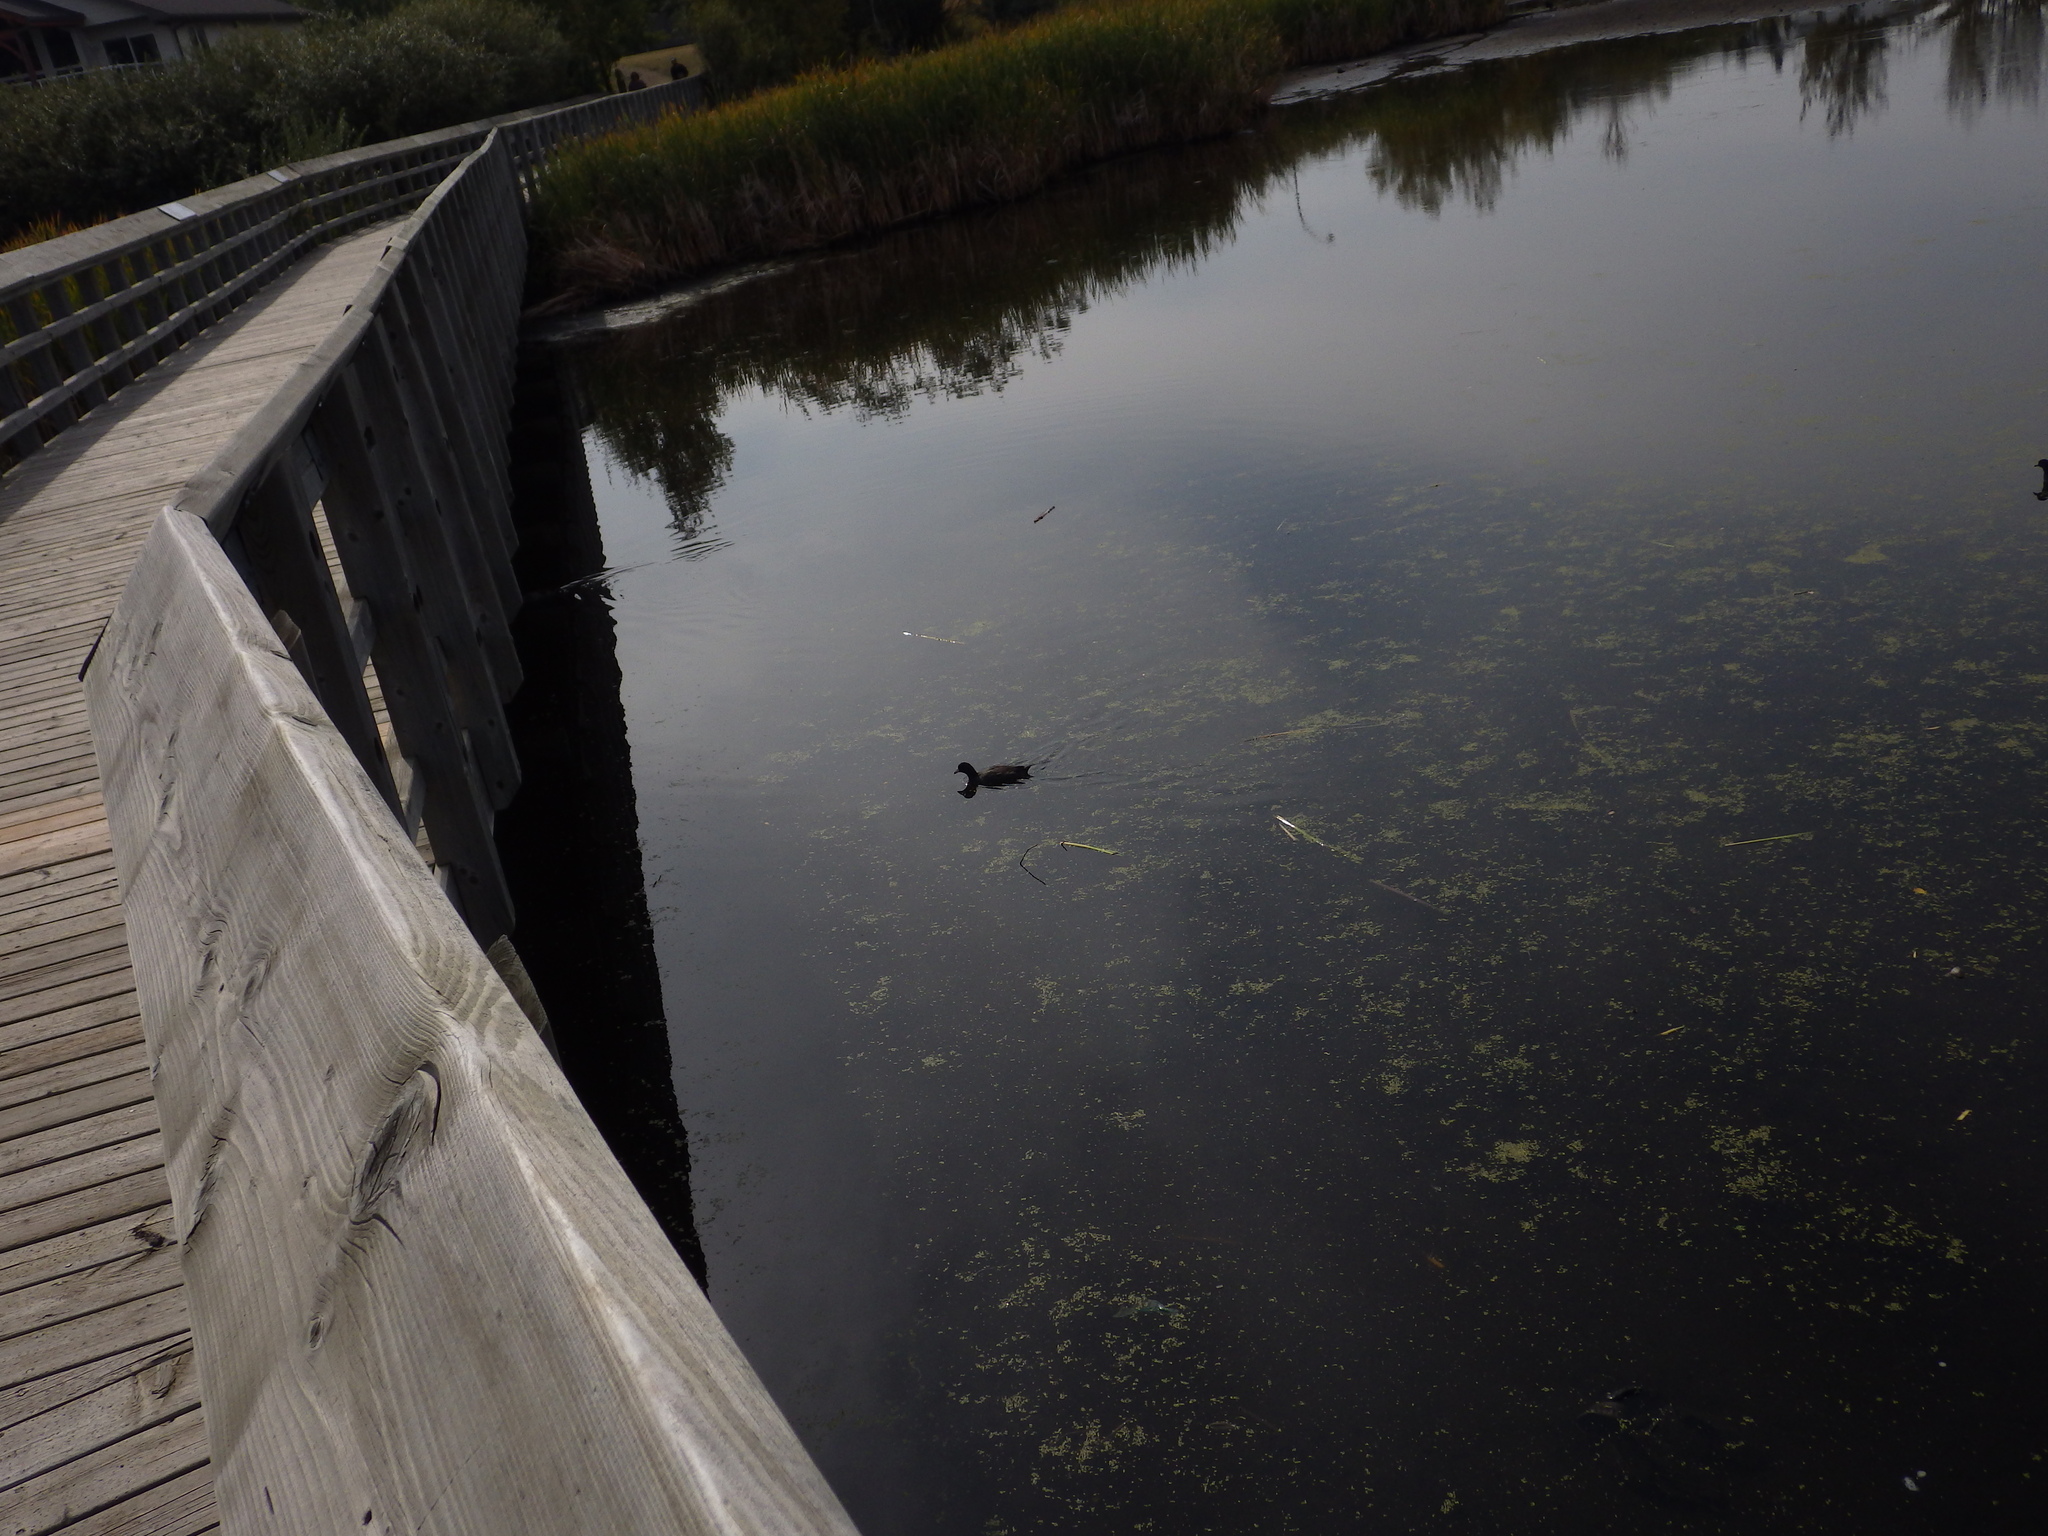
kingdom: Animalia
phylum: Chordata
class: Aves
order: Gruiformes
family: Rallidae
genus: Fulica
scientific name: Fulica americana
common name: American coot
